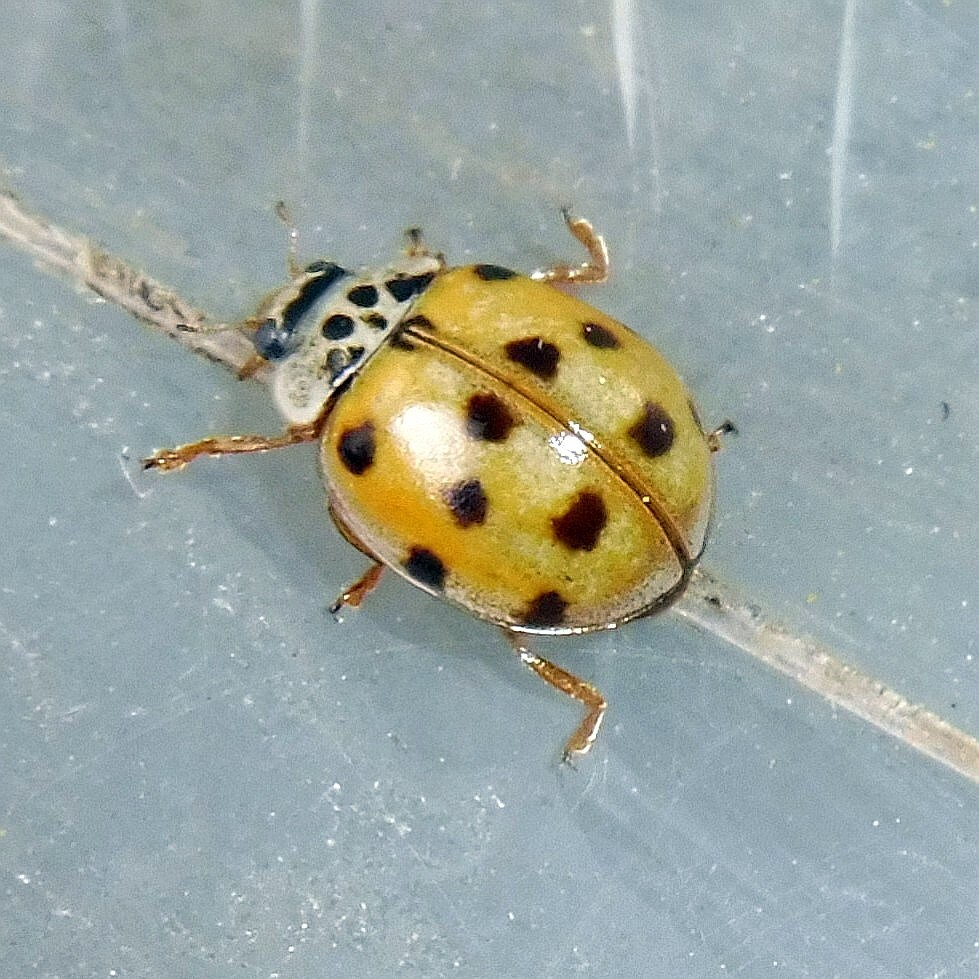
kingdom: Animalia
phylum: Arthropoda
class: Insecta
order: Coleoptera
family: Coccinellidae
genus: Adalia
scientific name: Adalia decempunctata
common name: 10-spot ladybird
